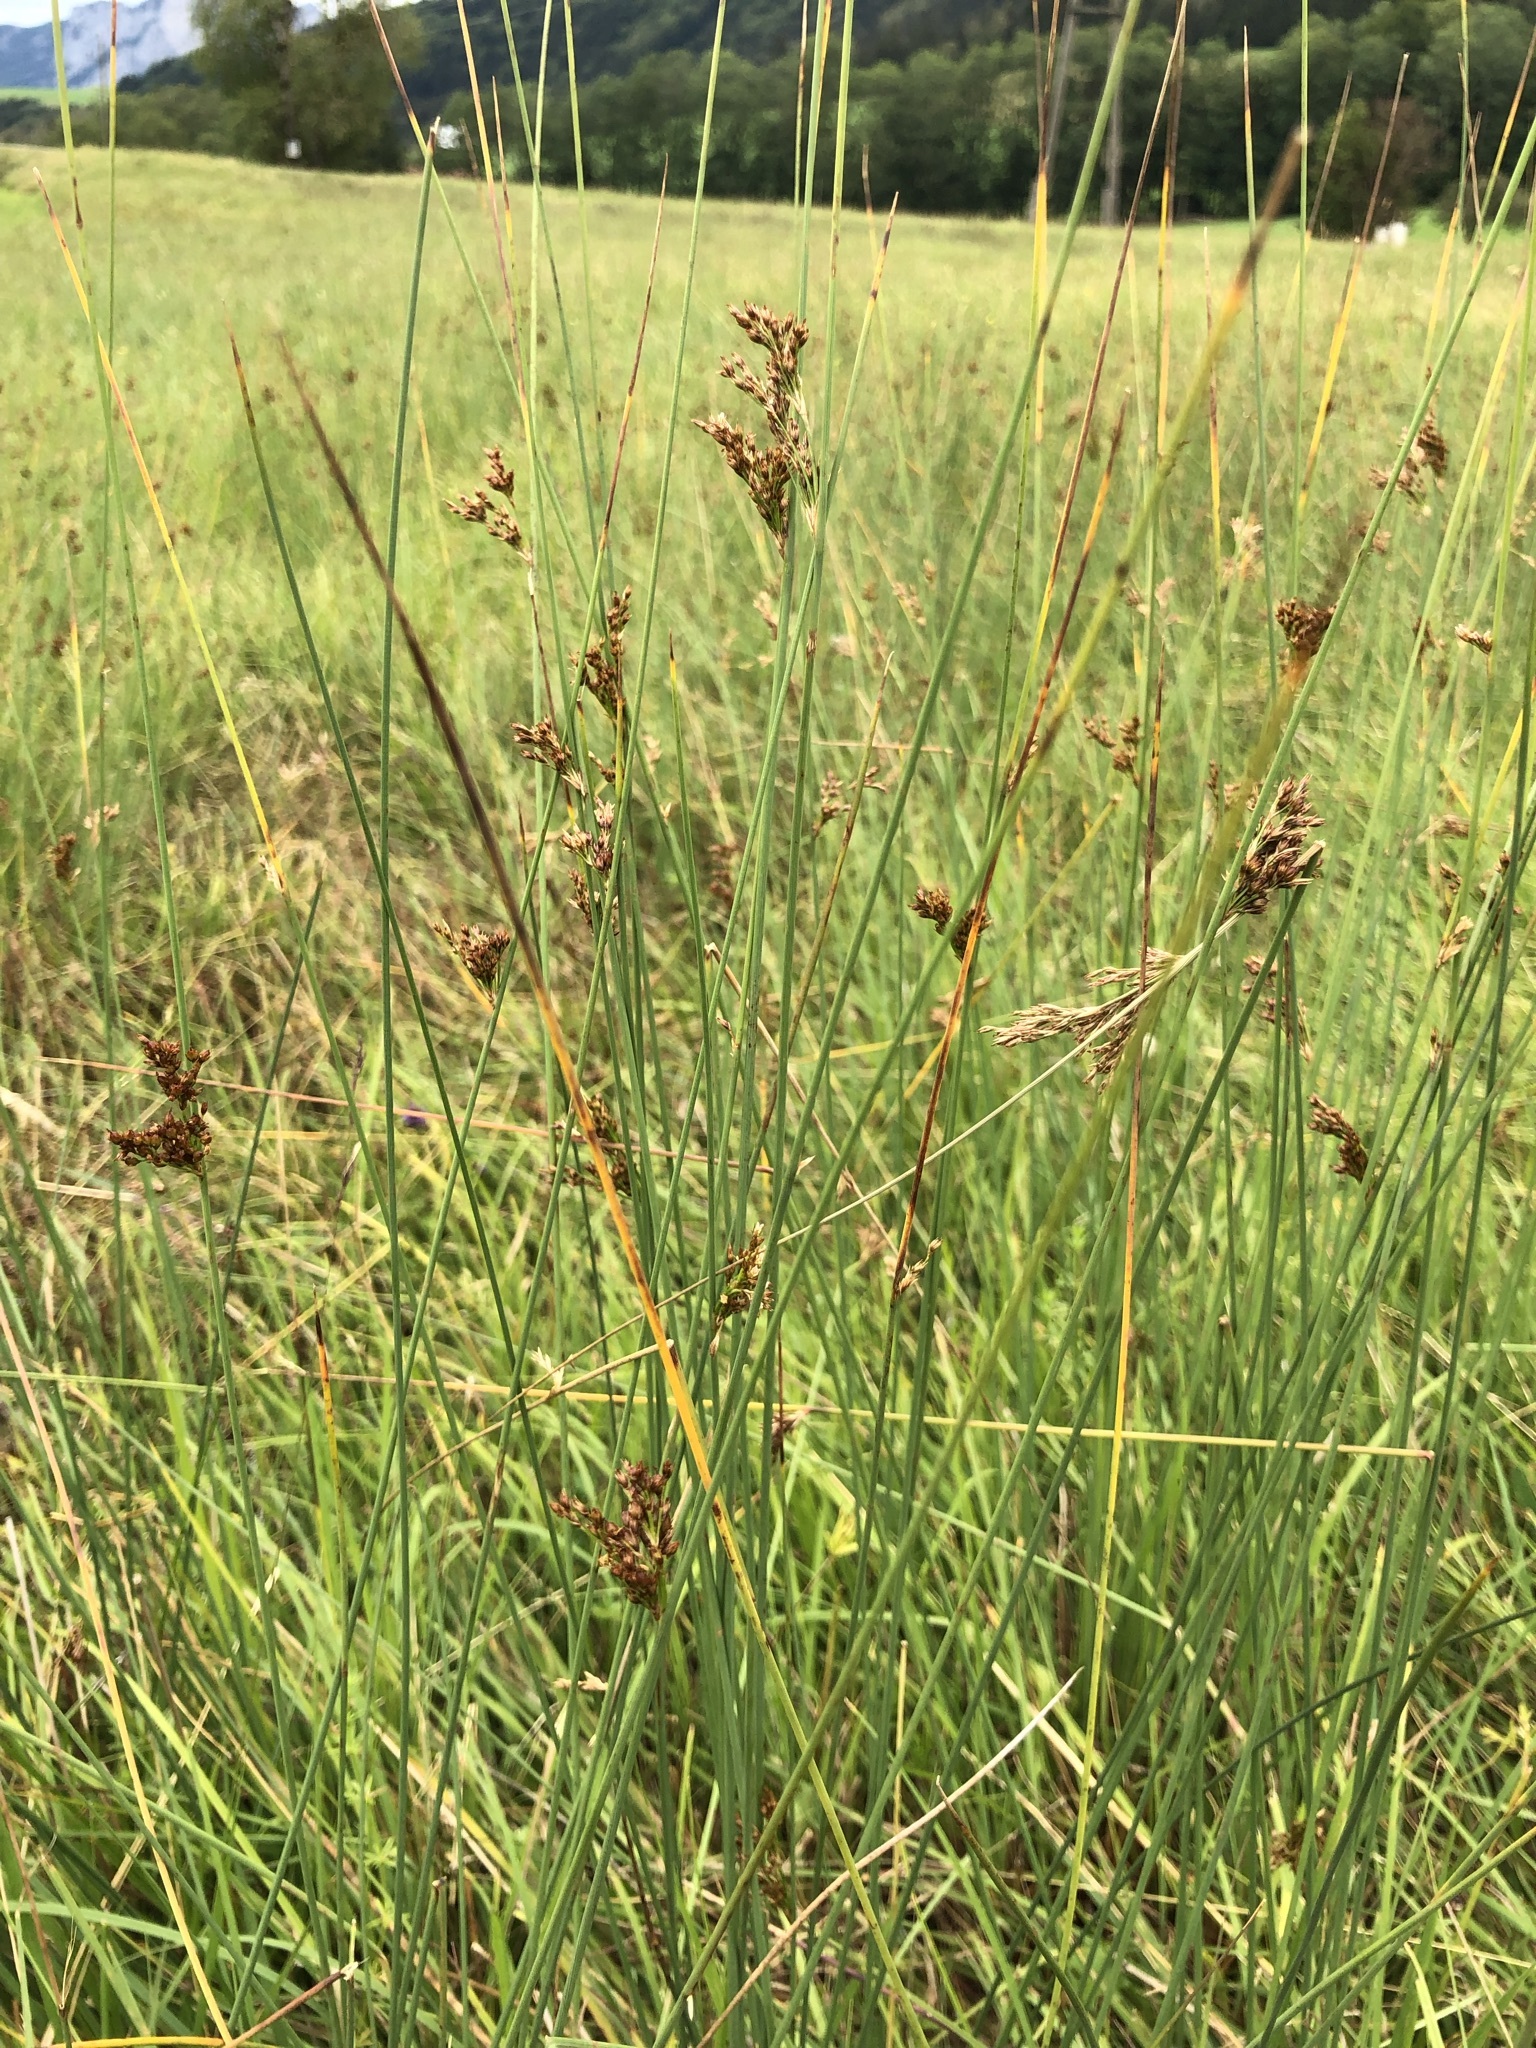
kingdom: Plantae
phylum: Tracheophyta
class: Liliopsida
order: Poales
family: Juncaceae
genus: Juncus
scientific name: Juncus inflexus
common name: Hard rush
